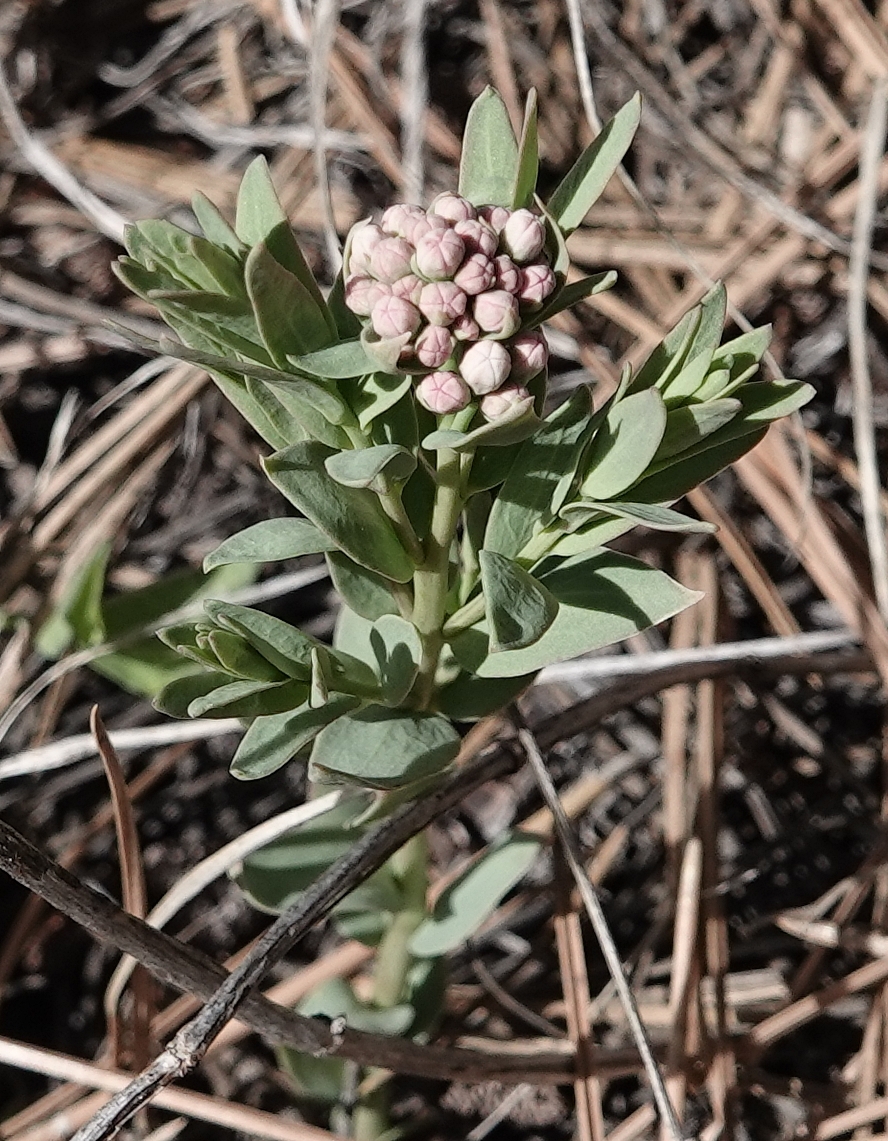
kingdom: Plantae
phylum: Tracheophyta
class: Magnoliopsida
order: Santalales
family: Comandraceae
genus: Comandra
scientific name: Comandra umbellata
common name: Bastard toadflax
